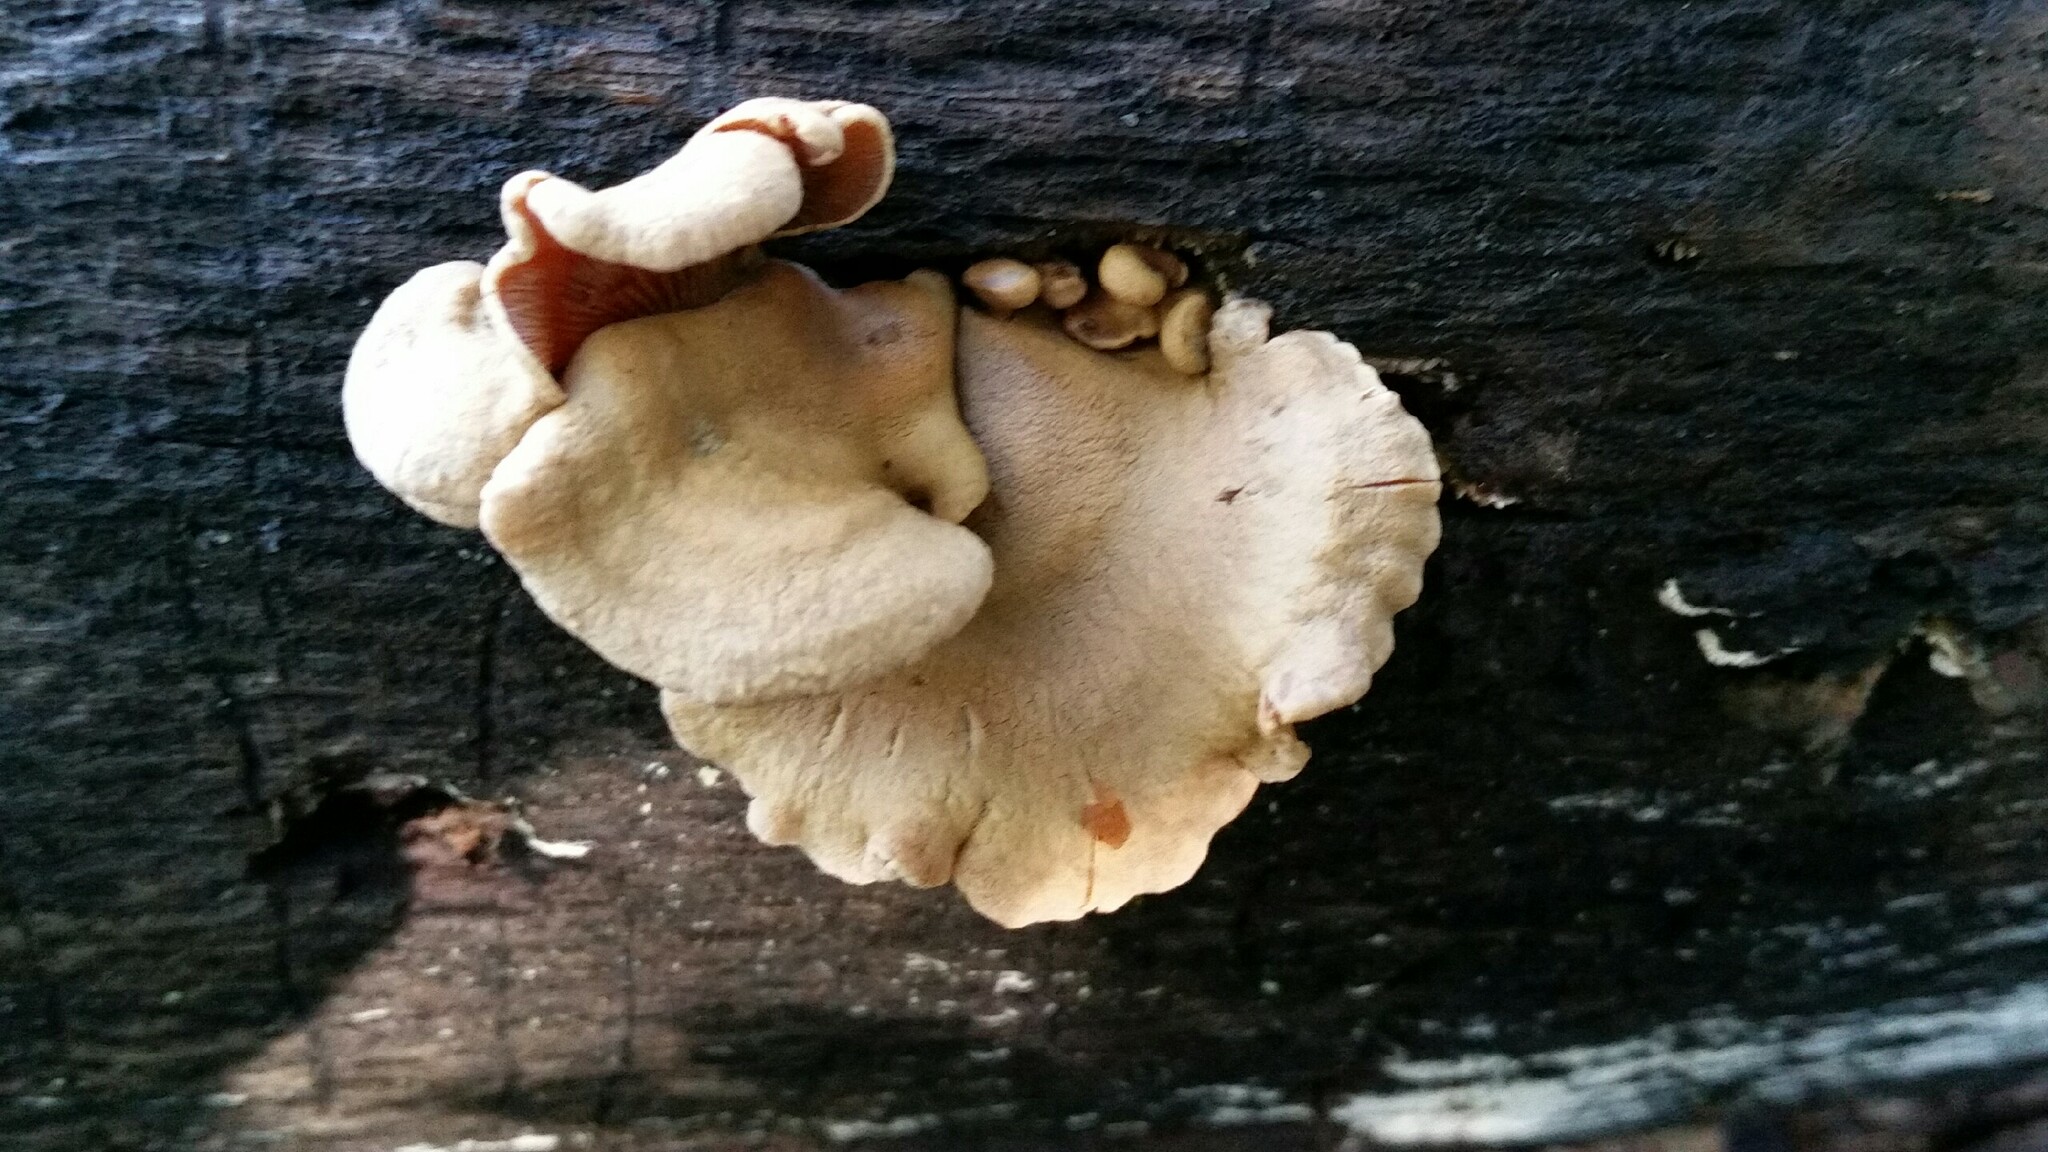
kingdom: Fungi
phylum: Basidiomycota
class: Agaricomycetes
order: Agaricales
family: Mycenaceae
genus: Panellus
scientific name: Panellus stipticus
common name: Bitter oysterling
